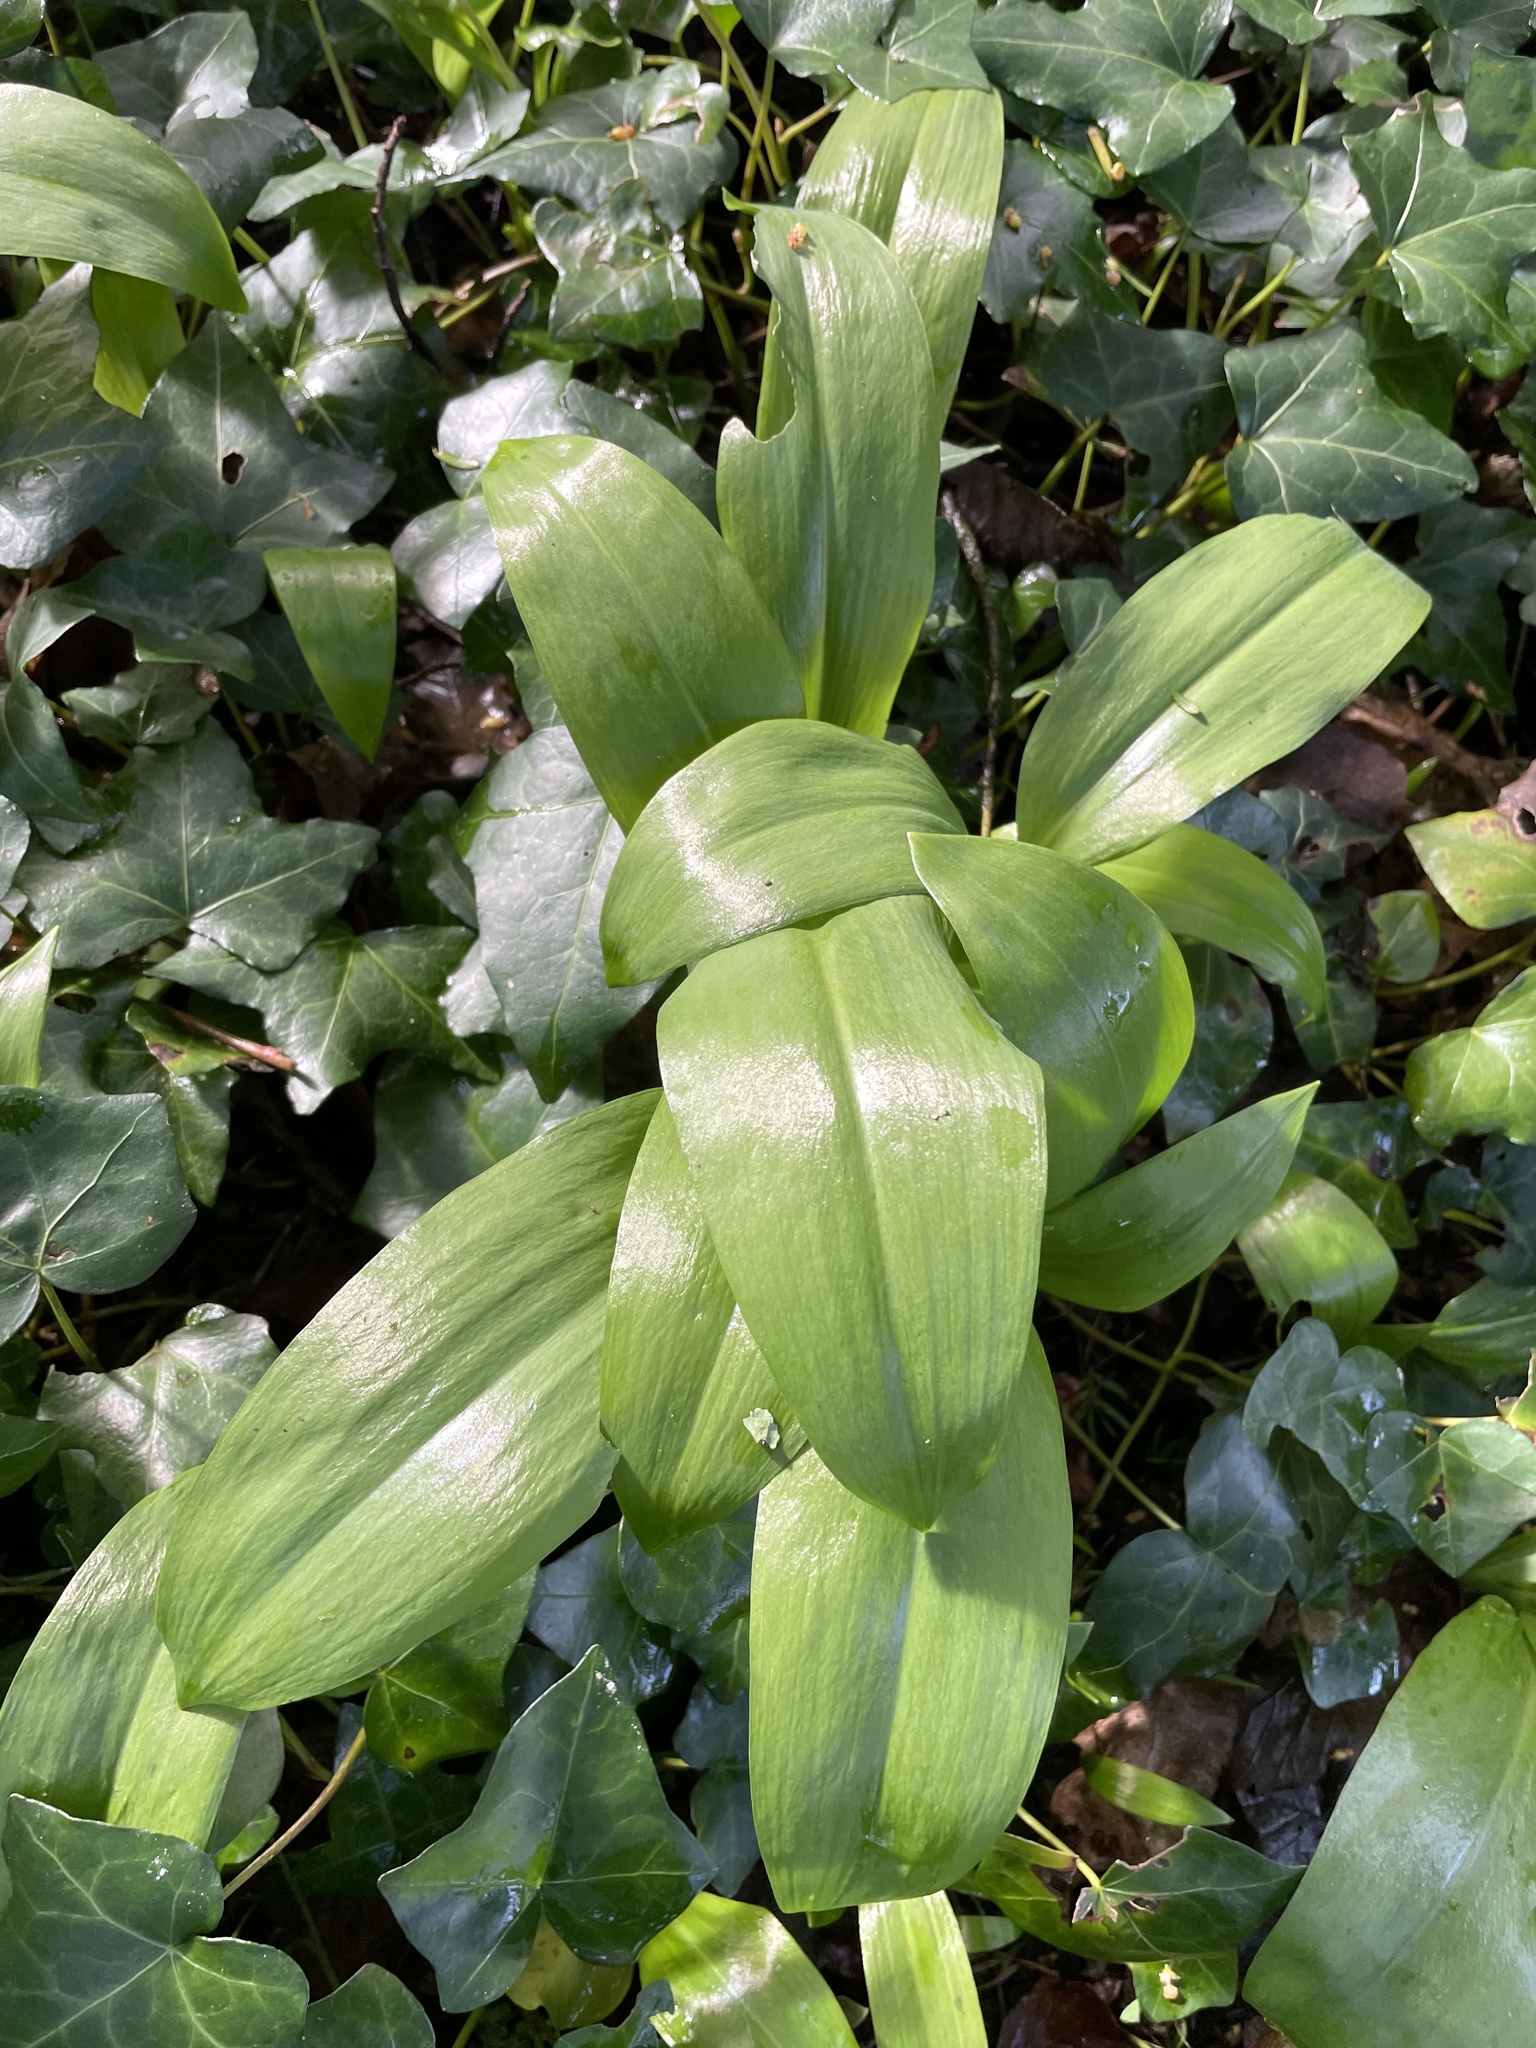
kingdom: Plantae
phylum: Tracheophyta
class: Liliopsida
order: Asparagales
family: Amaryllidaceae
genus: Allium
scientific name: Allium ursinum
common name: Ramsons
